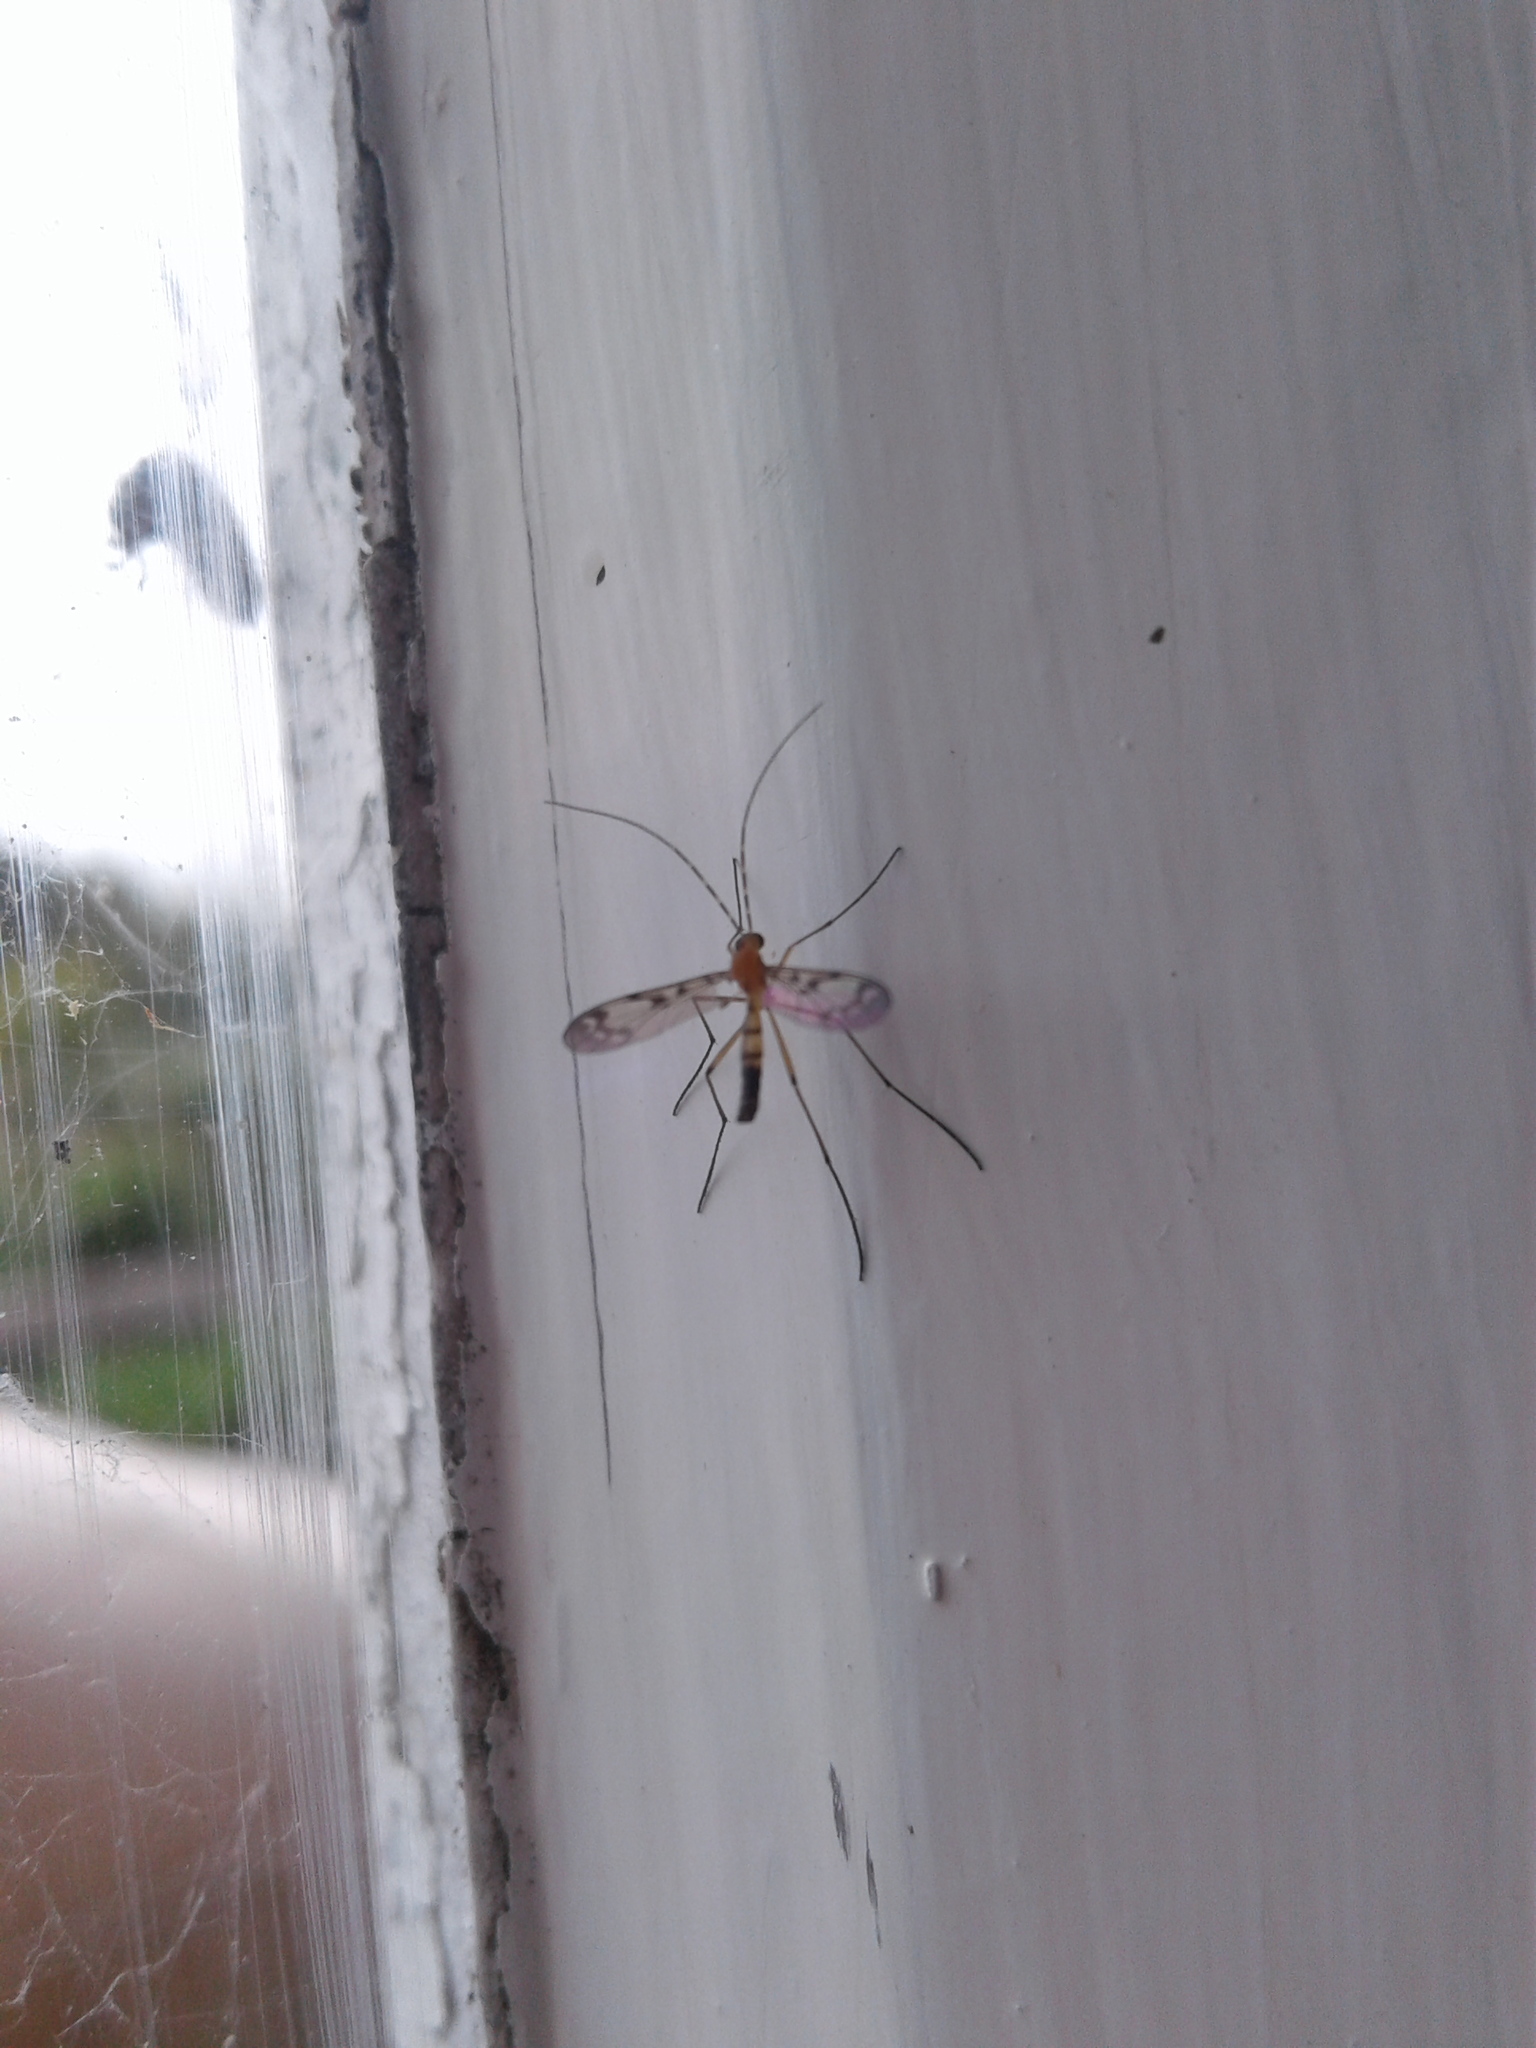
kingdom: Animalia
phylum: Arthropoda
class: Insecta
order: Diptera
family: Keroplatidae
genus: Macrocera
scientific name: Macrocera
